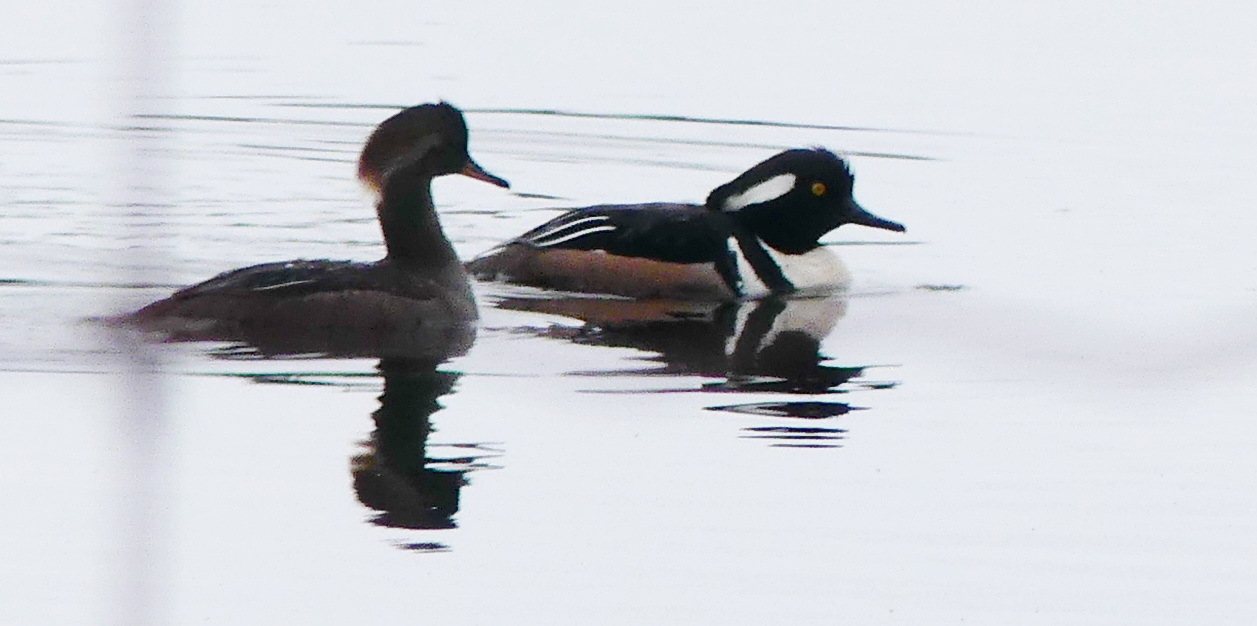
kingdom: Animalia
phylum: Chordata
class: Aves
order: Anseriformes
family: Anatidae
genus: Lophodytes
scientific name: Lophodytes cucullatus
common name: Hooded merganser
